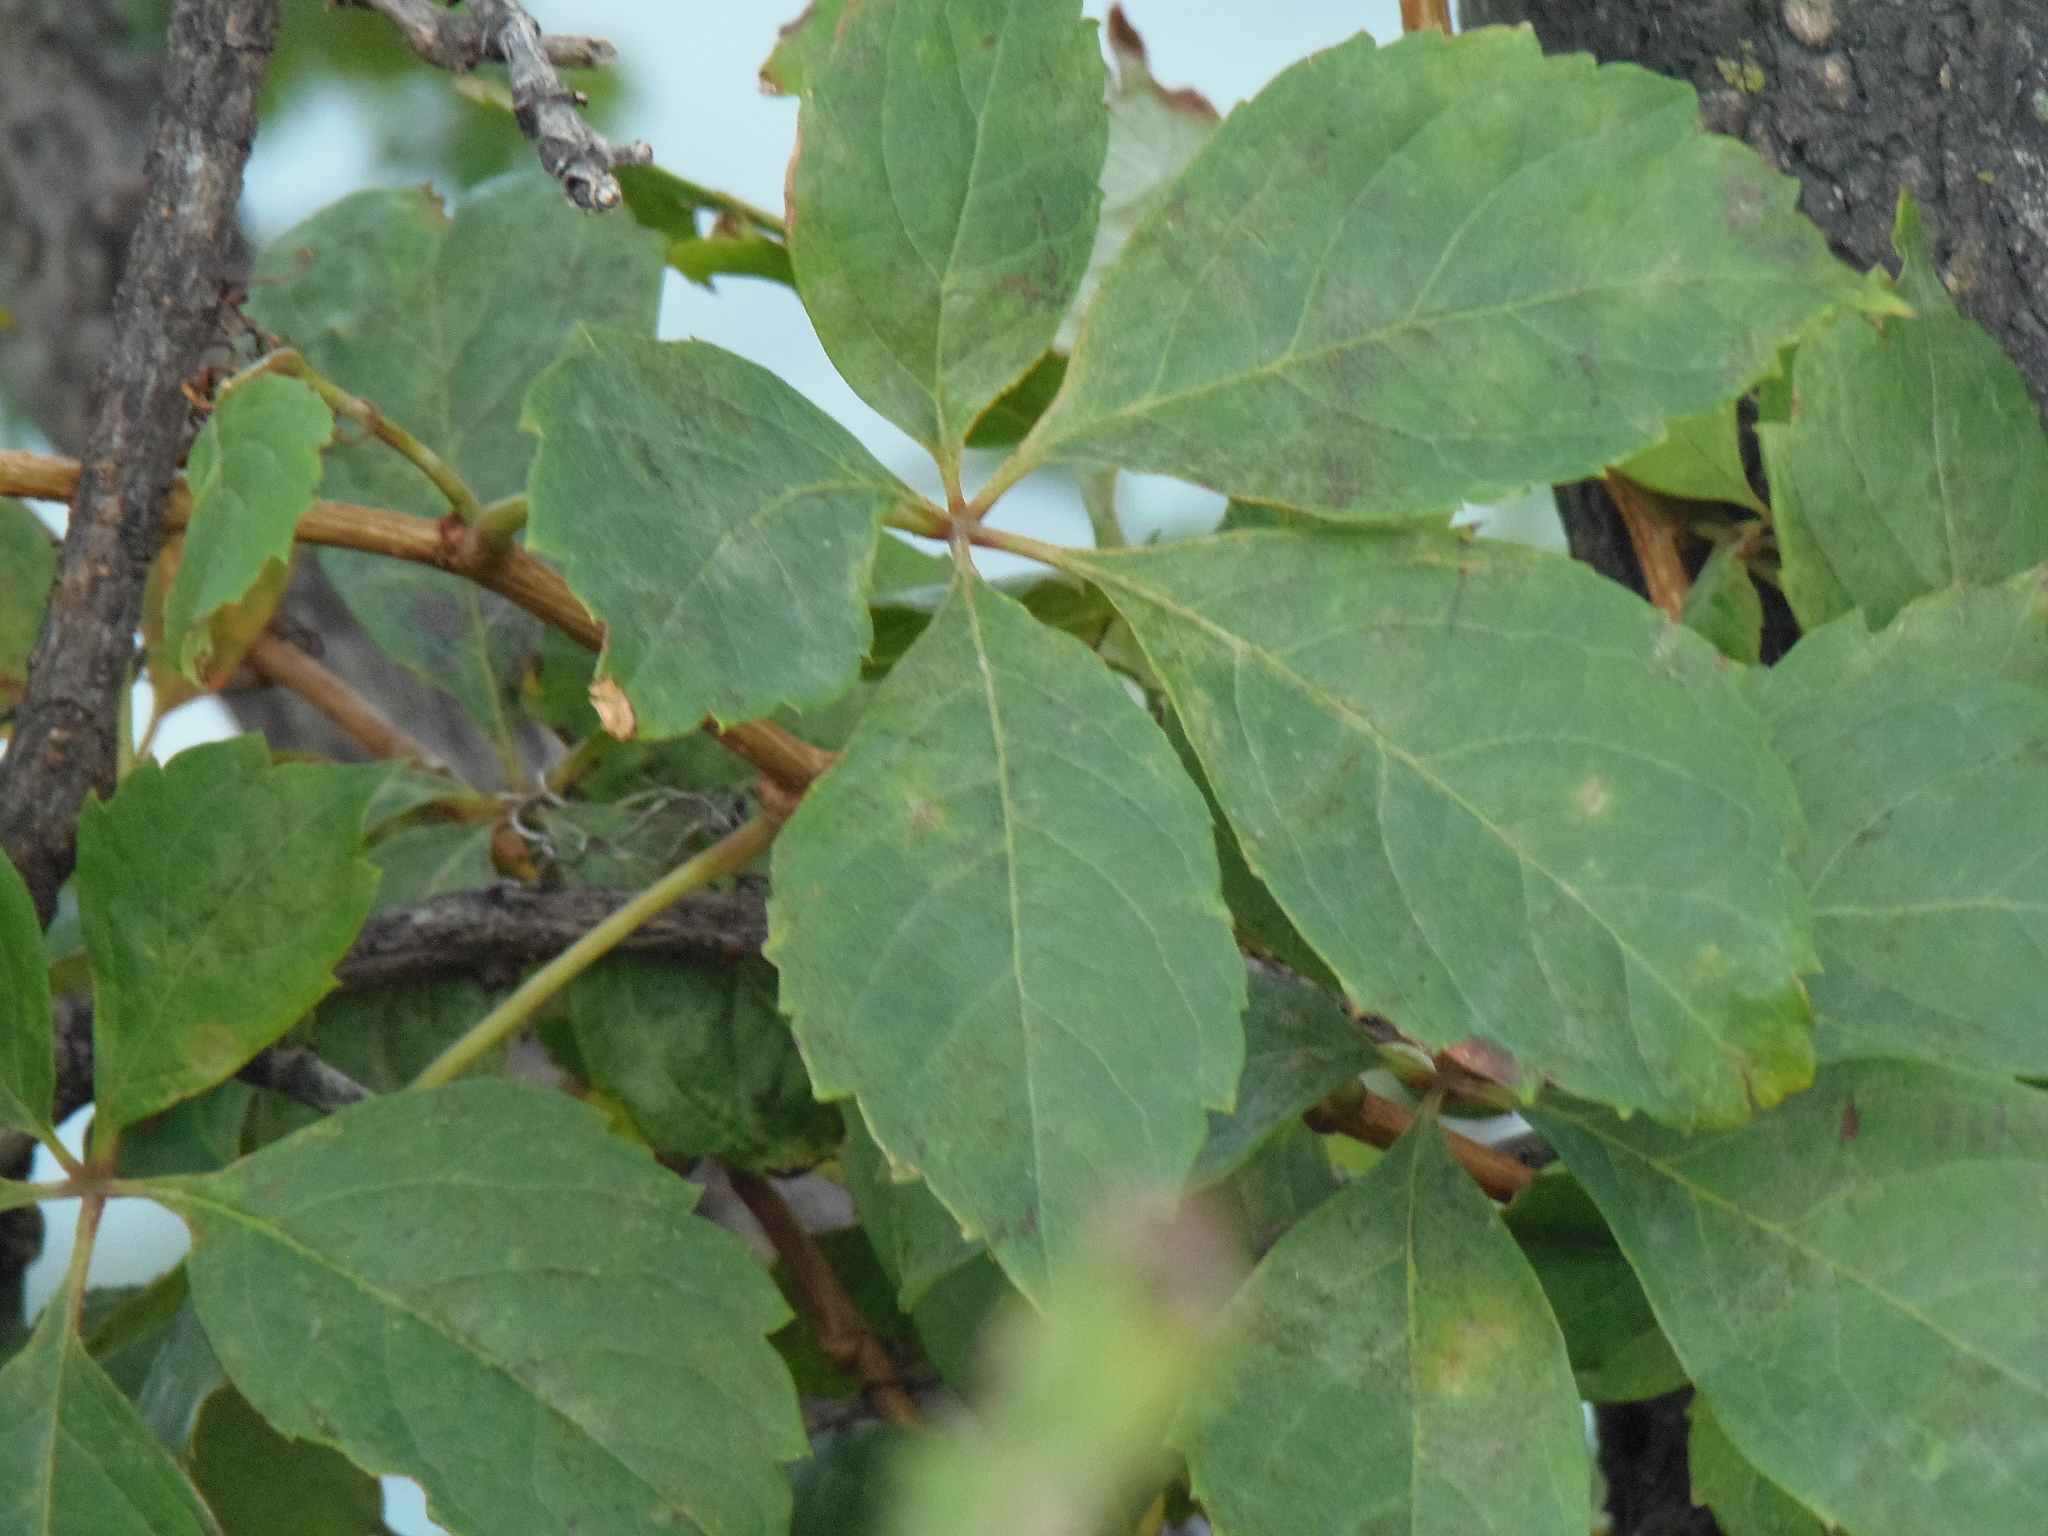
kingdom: Plantae
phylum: Tracheophyta
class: Magnoliopsida
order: Vitales
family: Vitaceae
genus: Parthenocissus
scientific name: Parthenocissus quinquefolia
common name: Virginia-creeper
